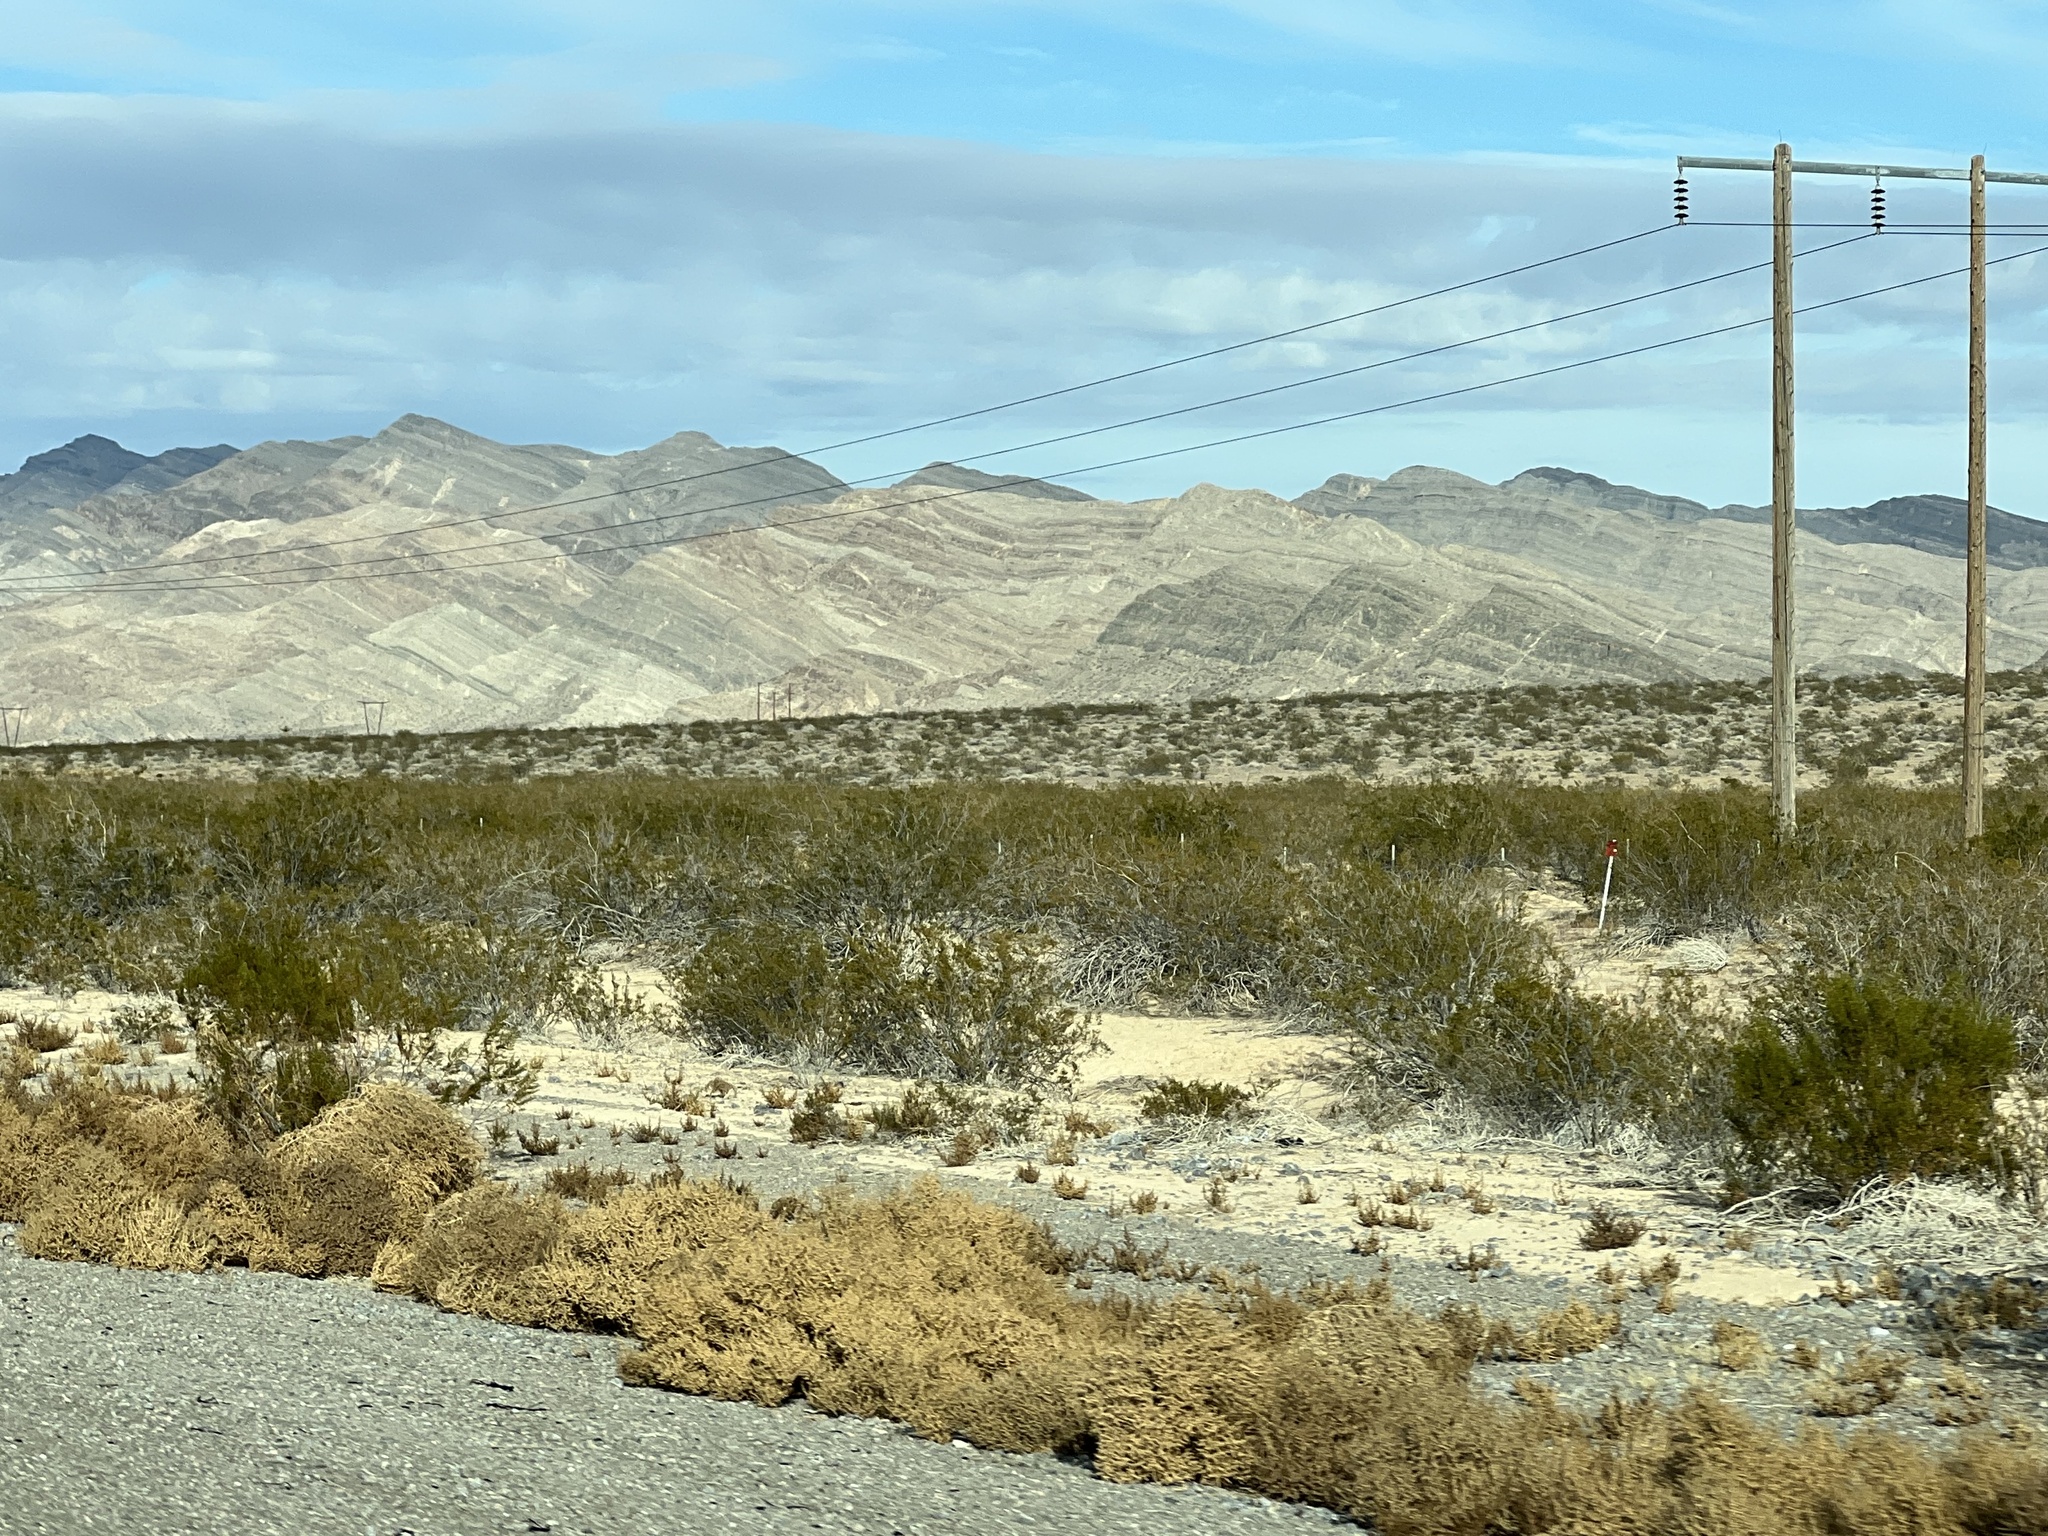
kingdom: Plantae
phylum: Tracheophyta
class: Magnoliopsida
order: Zygophyllales
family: Zygophyllaceae
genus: Larrea
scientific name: Larrea tridentata
